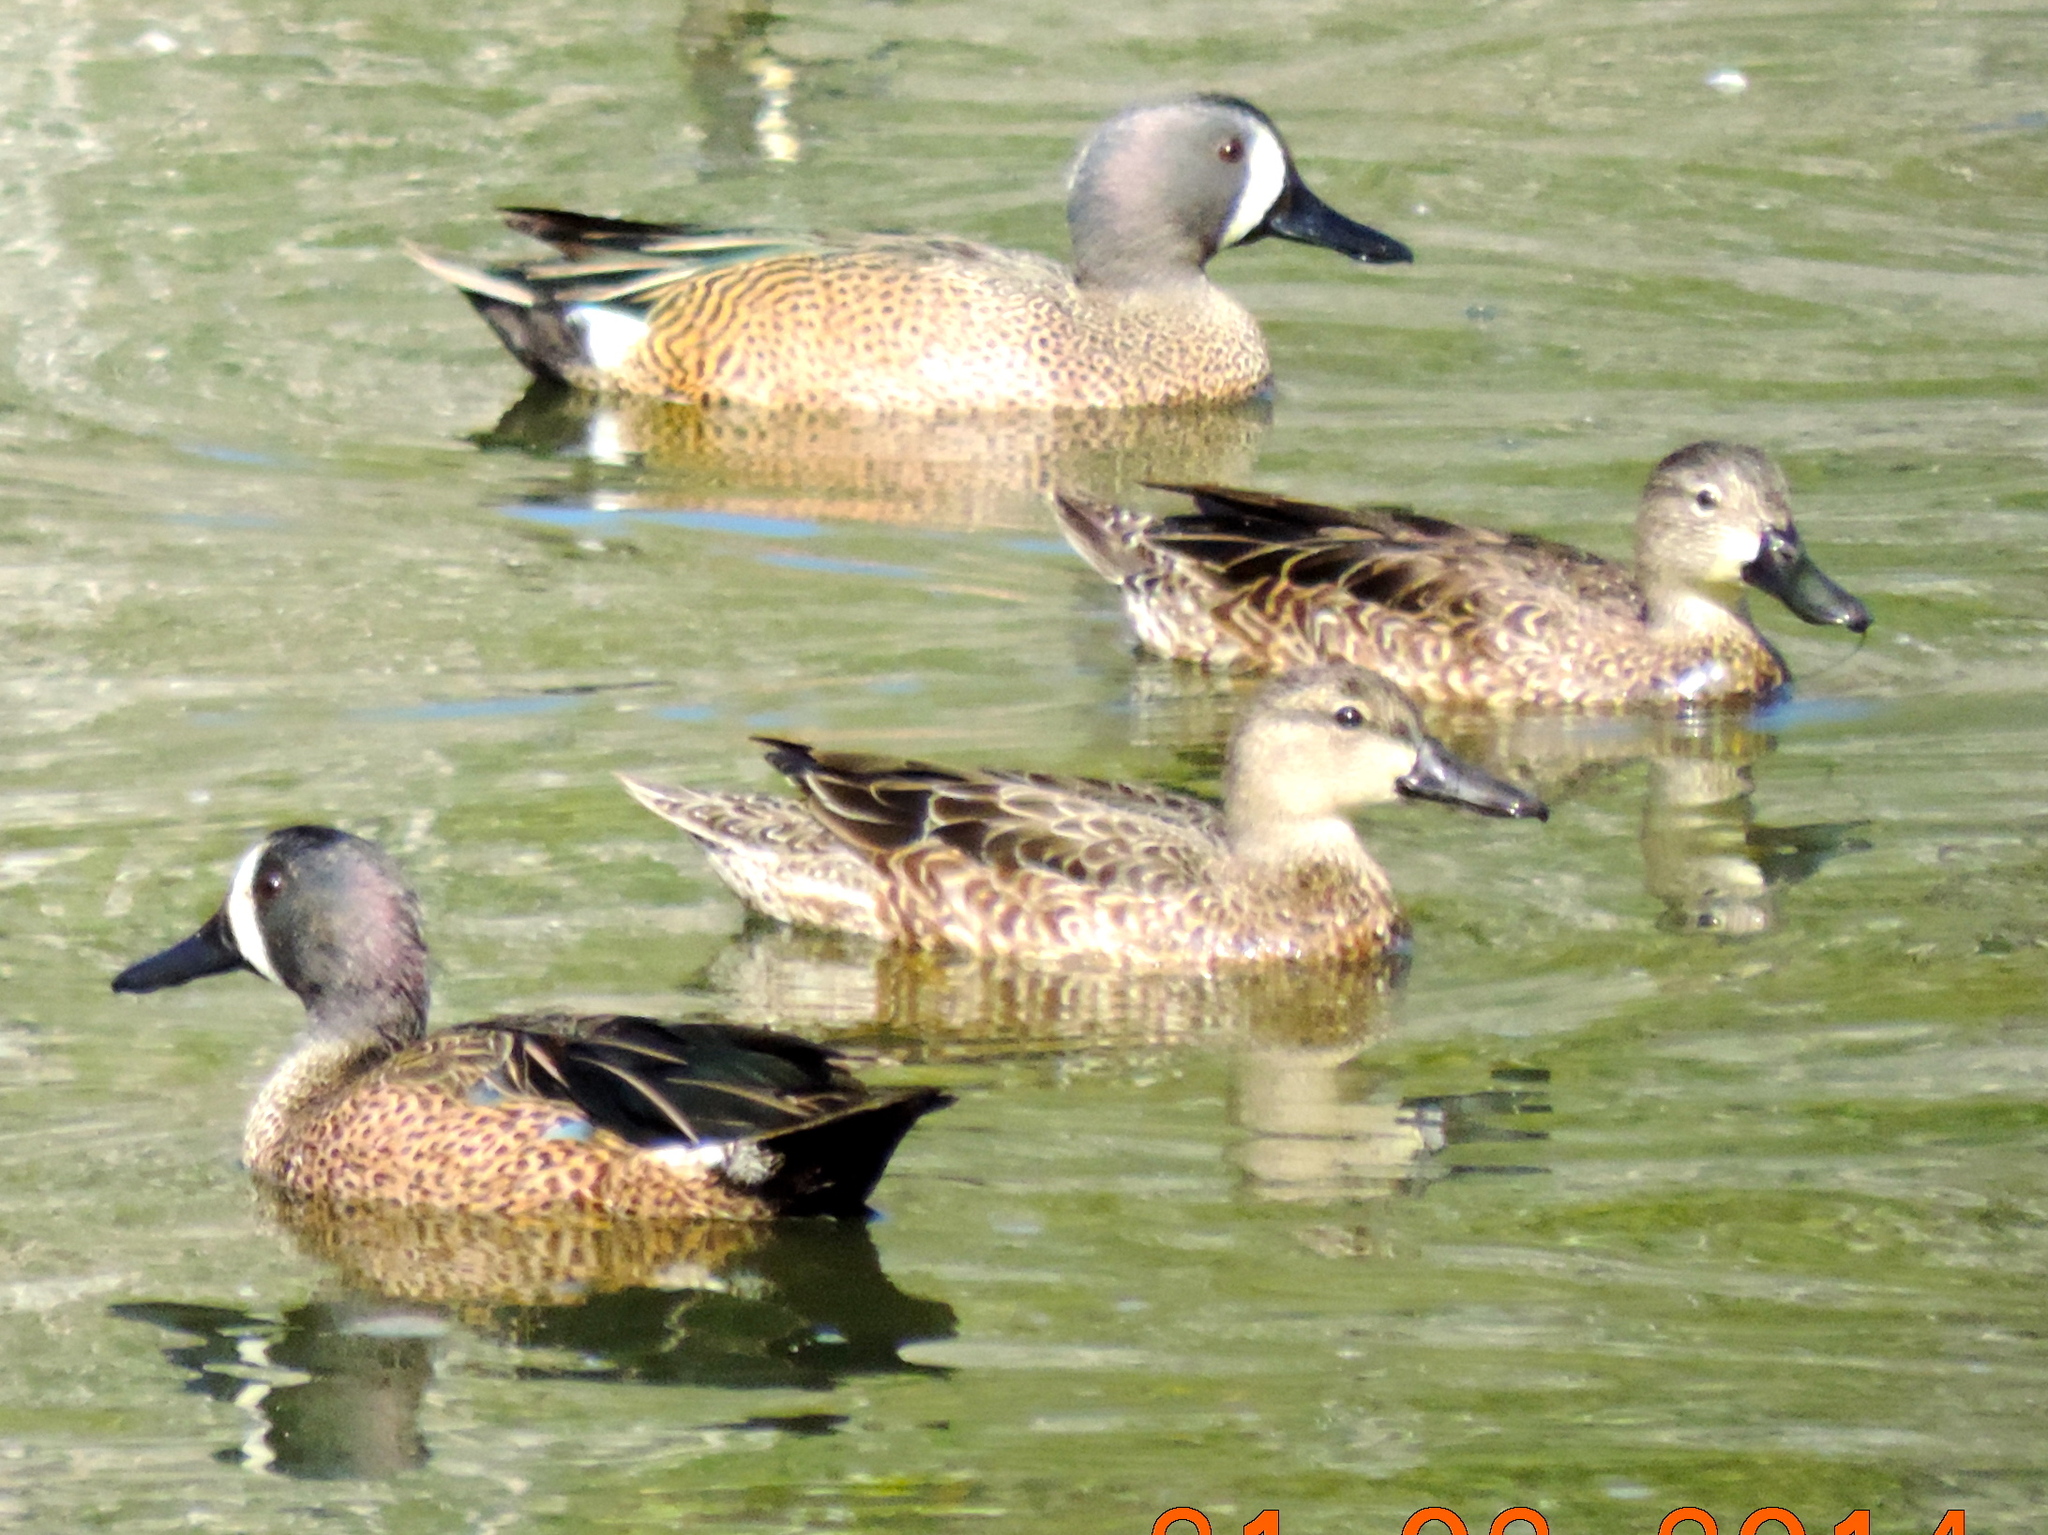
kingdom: Animalia
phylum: Chordata
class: Aves
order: Anseriformes
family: Anatidae
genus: Spatula
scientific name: Spatula discors
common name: Blue-winged teal
